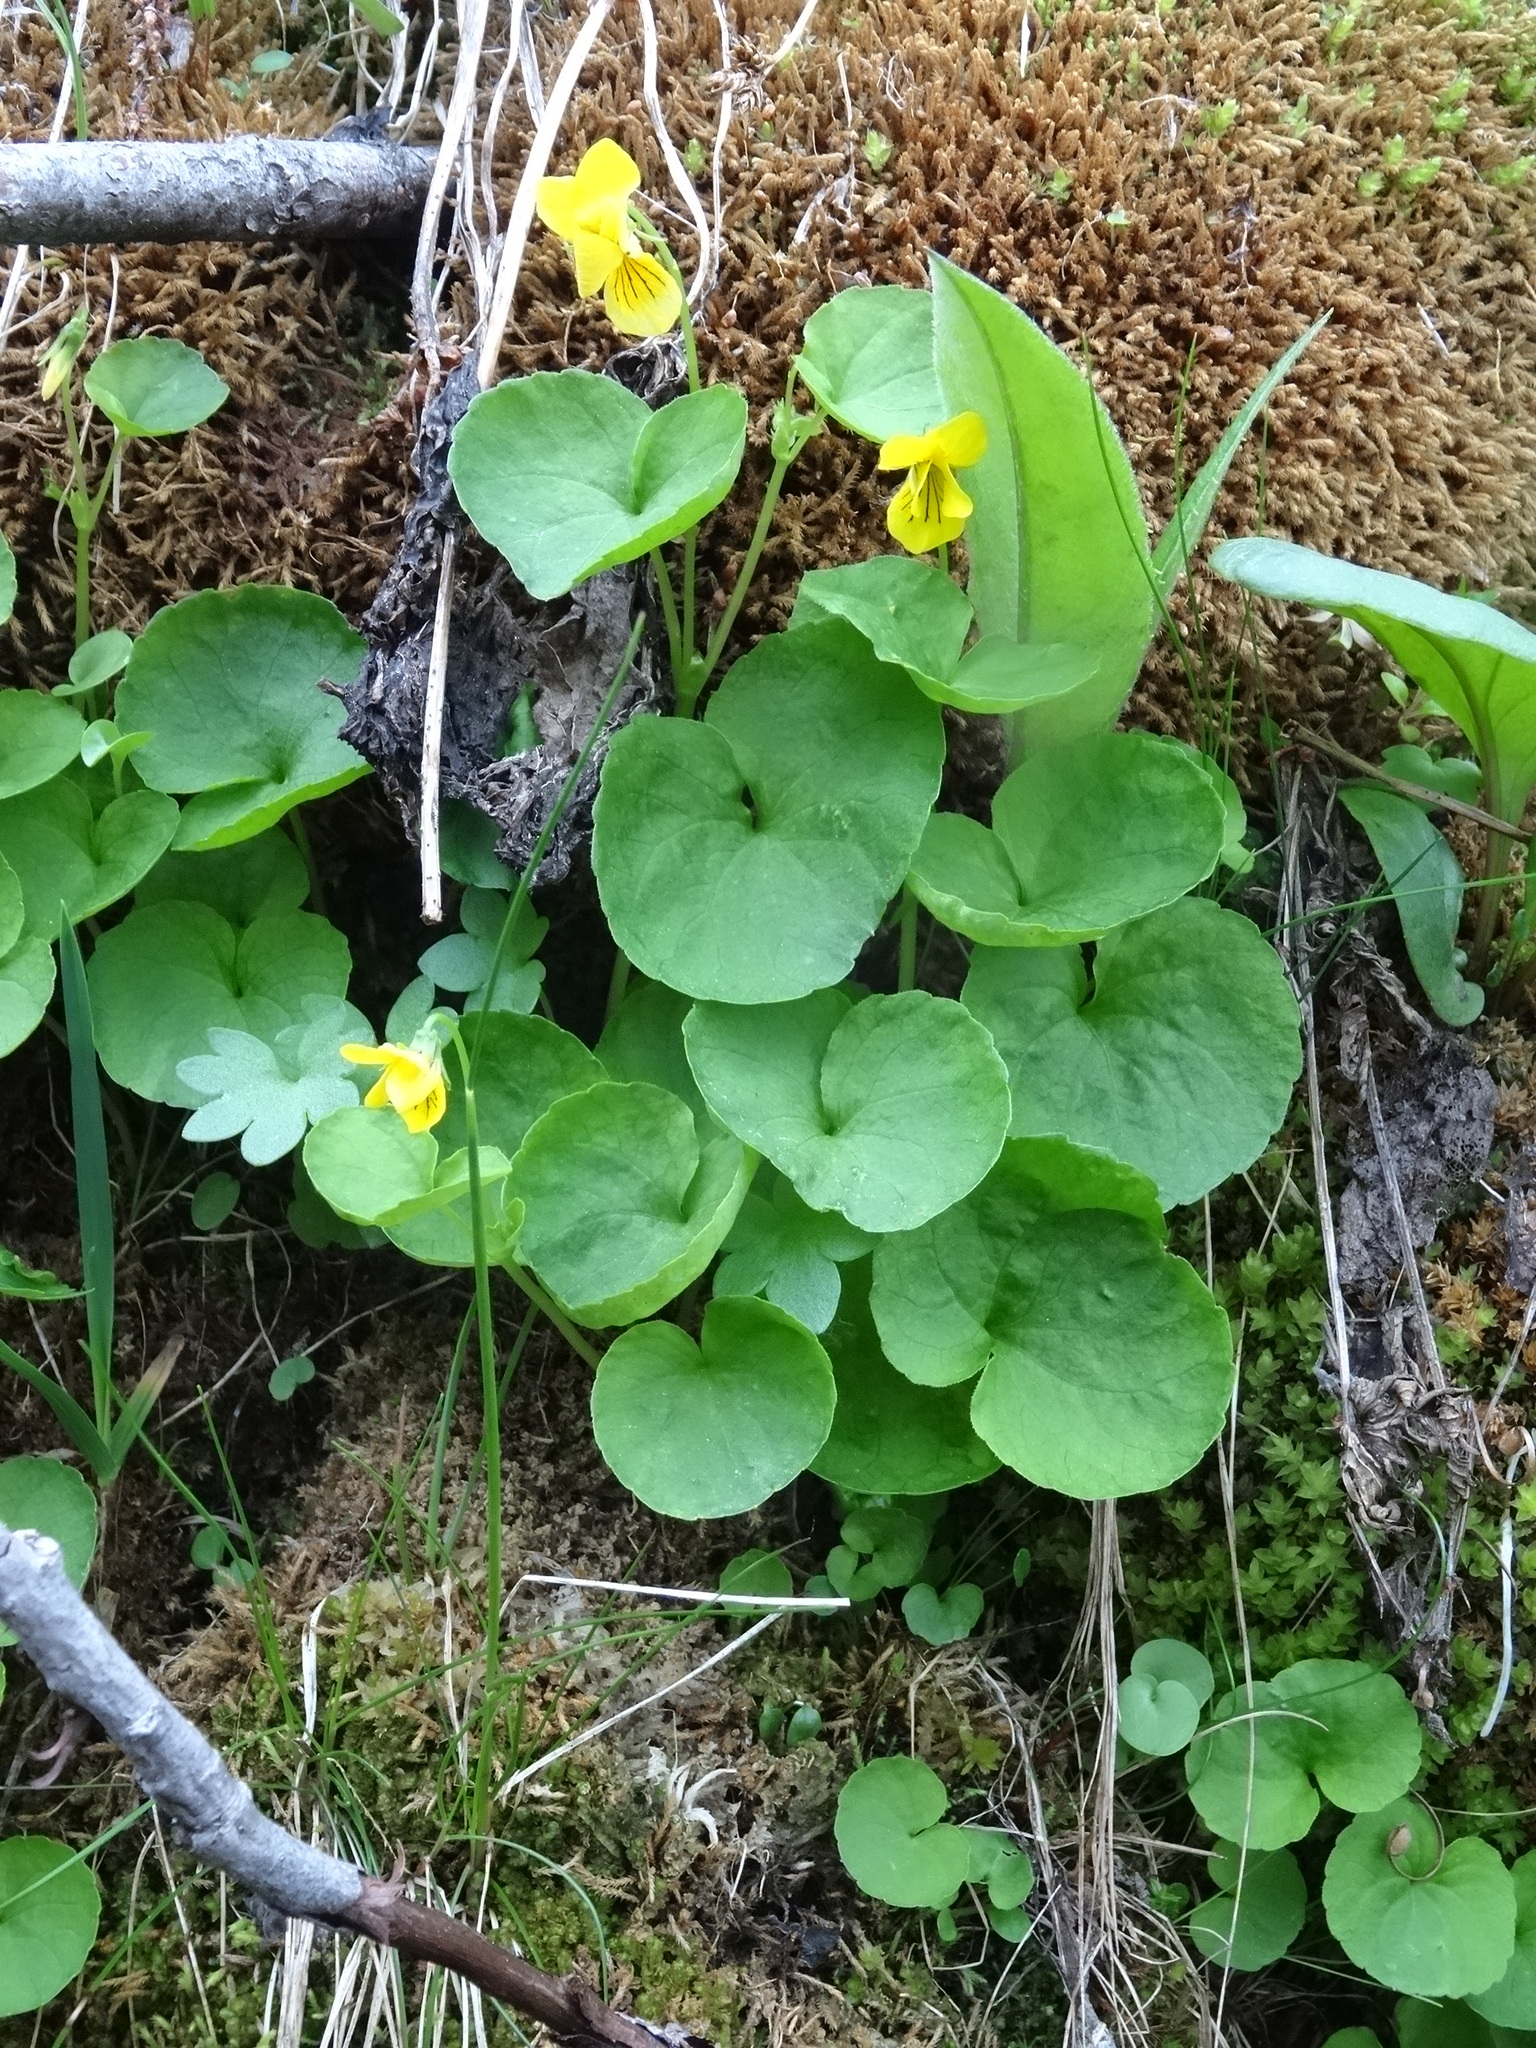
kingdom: Plantae
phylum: Tracheophyta
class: Magnoliopsida
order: Malpighiales
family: Violaceae
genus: Viola
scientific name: Viola biflora
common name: Alpine yellow violet
